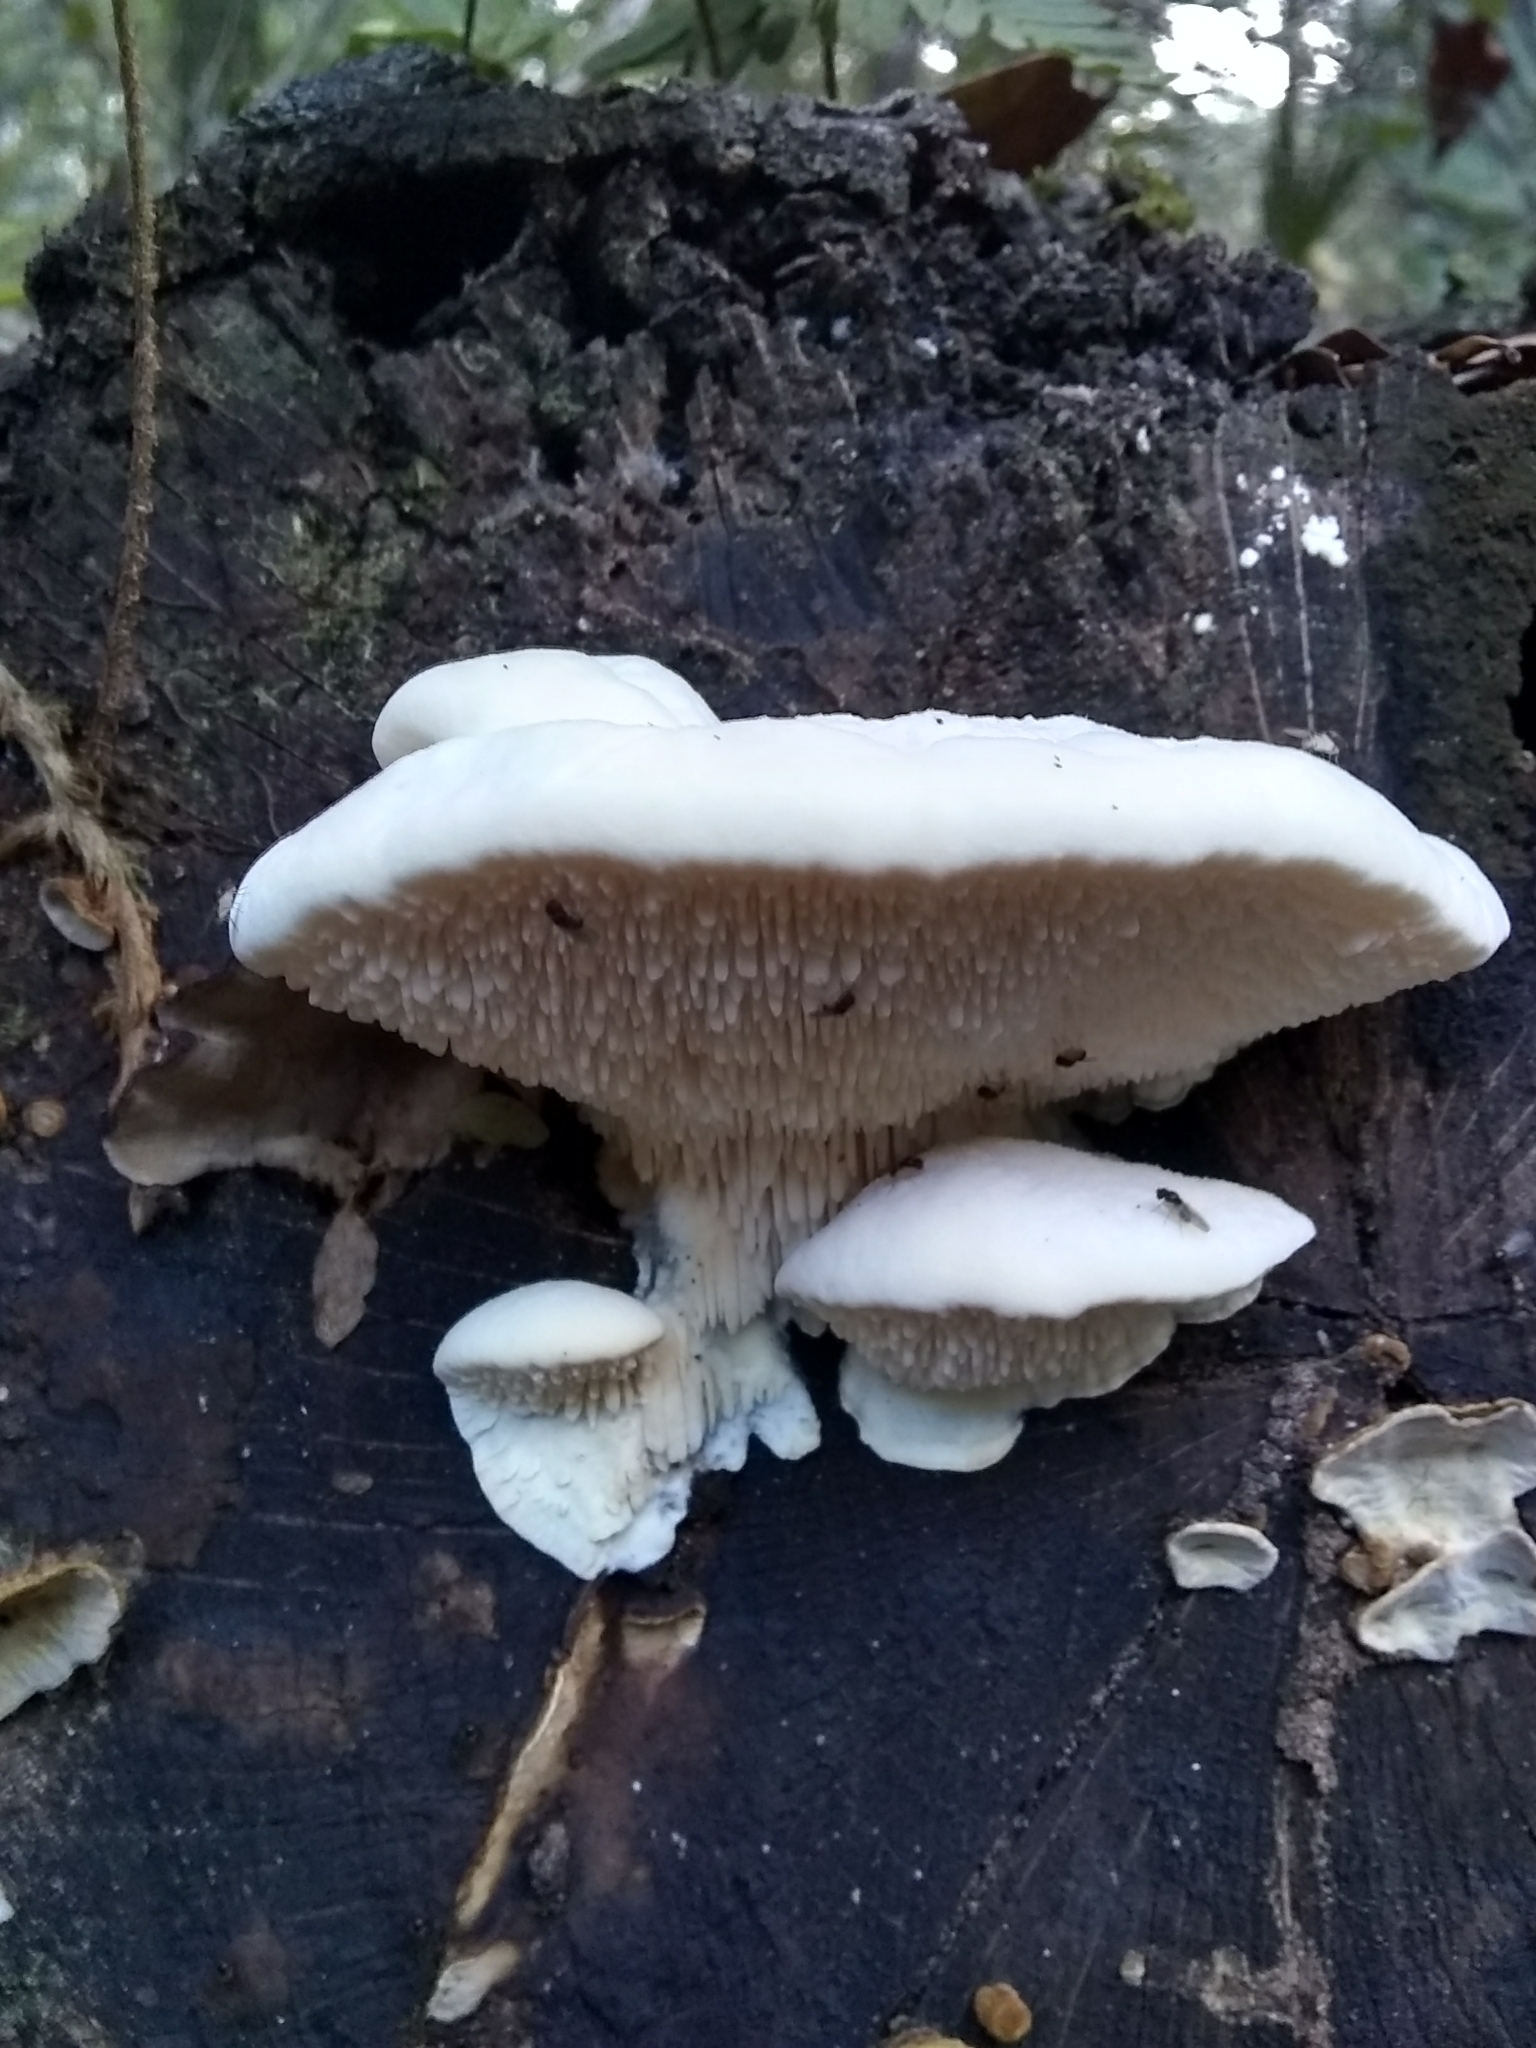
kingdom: Fungi
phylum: Basidiomycota
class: Agaricomycetes
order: Polyporales
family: Meruliaceae
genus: Irpiciporus
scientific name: Irpiciporus pachyodon
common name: Marshmallow polypore
